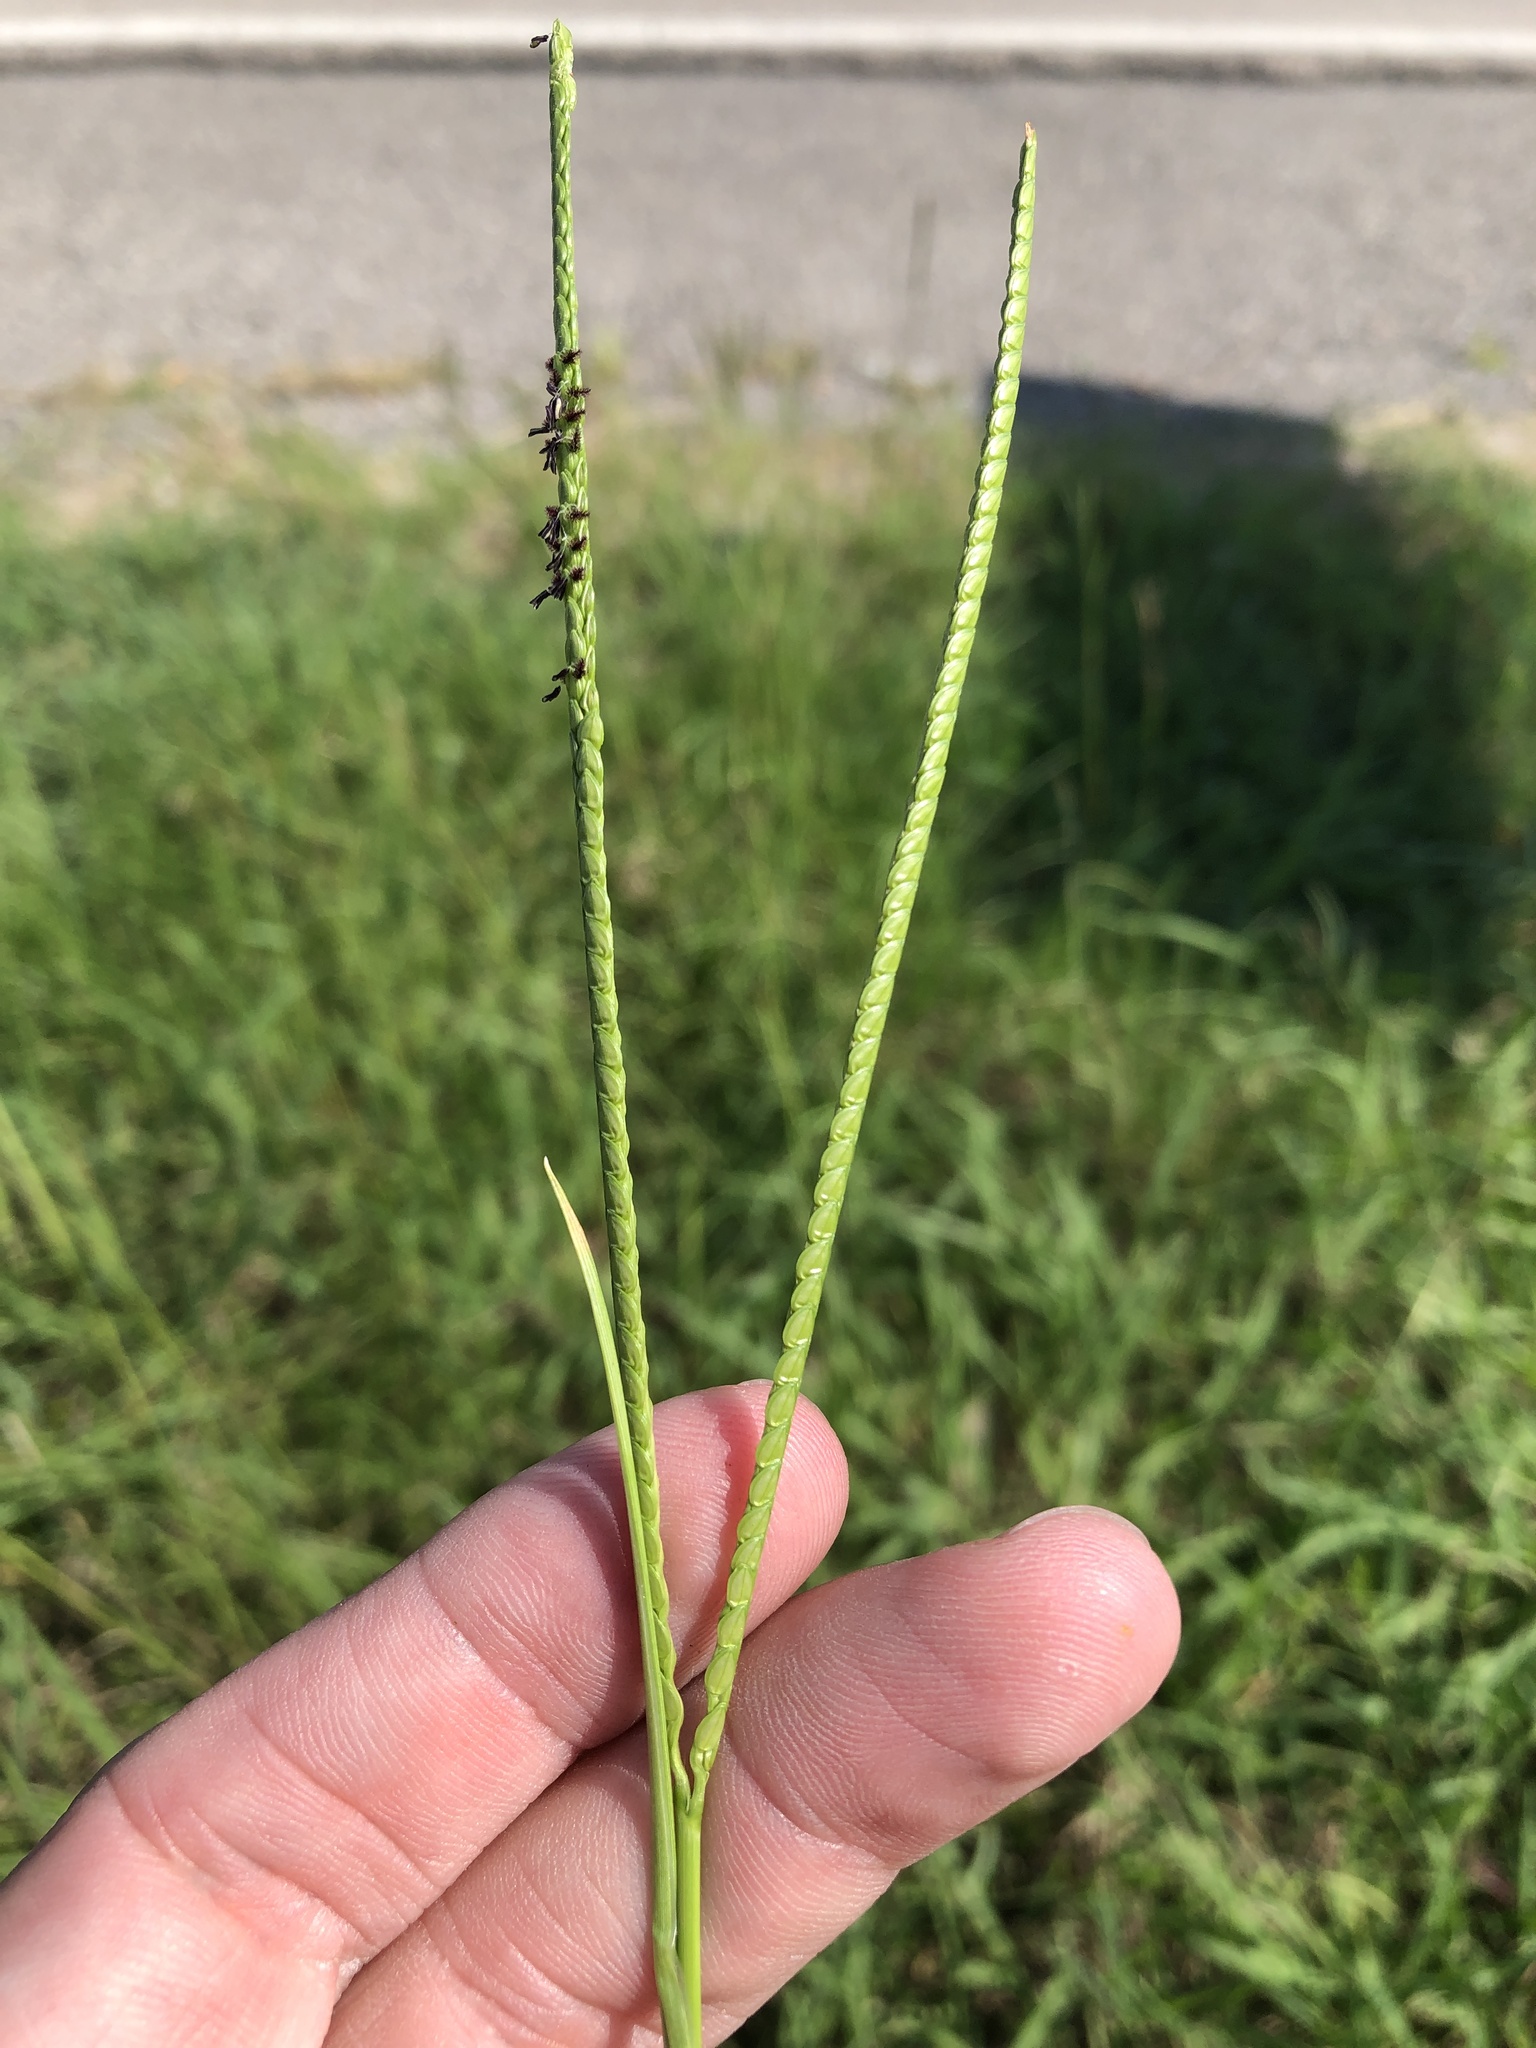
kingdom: Plantae
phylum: Tracheophyta
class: Liliopsida
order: Poales
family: Poaceae
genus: Paspalum
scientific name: Paspalum notatum
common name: Bahiagrass
